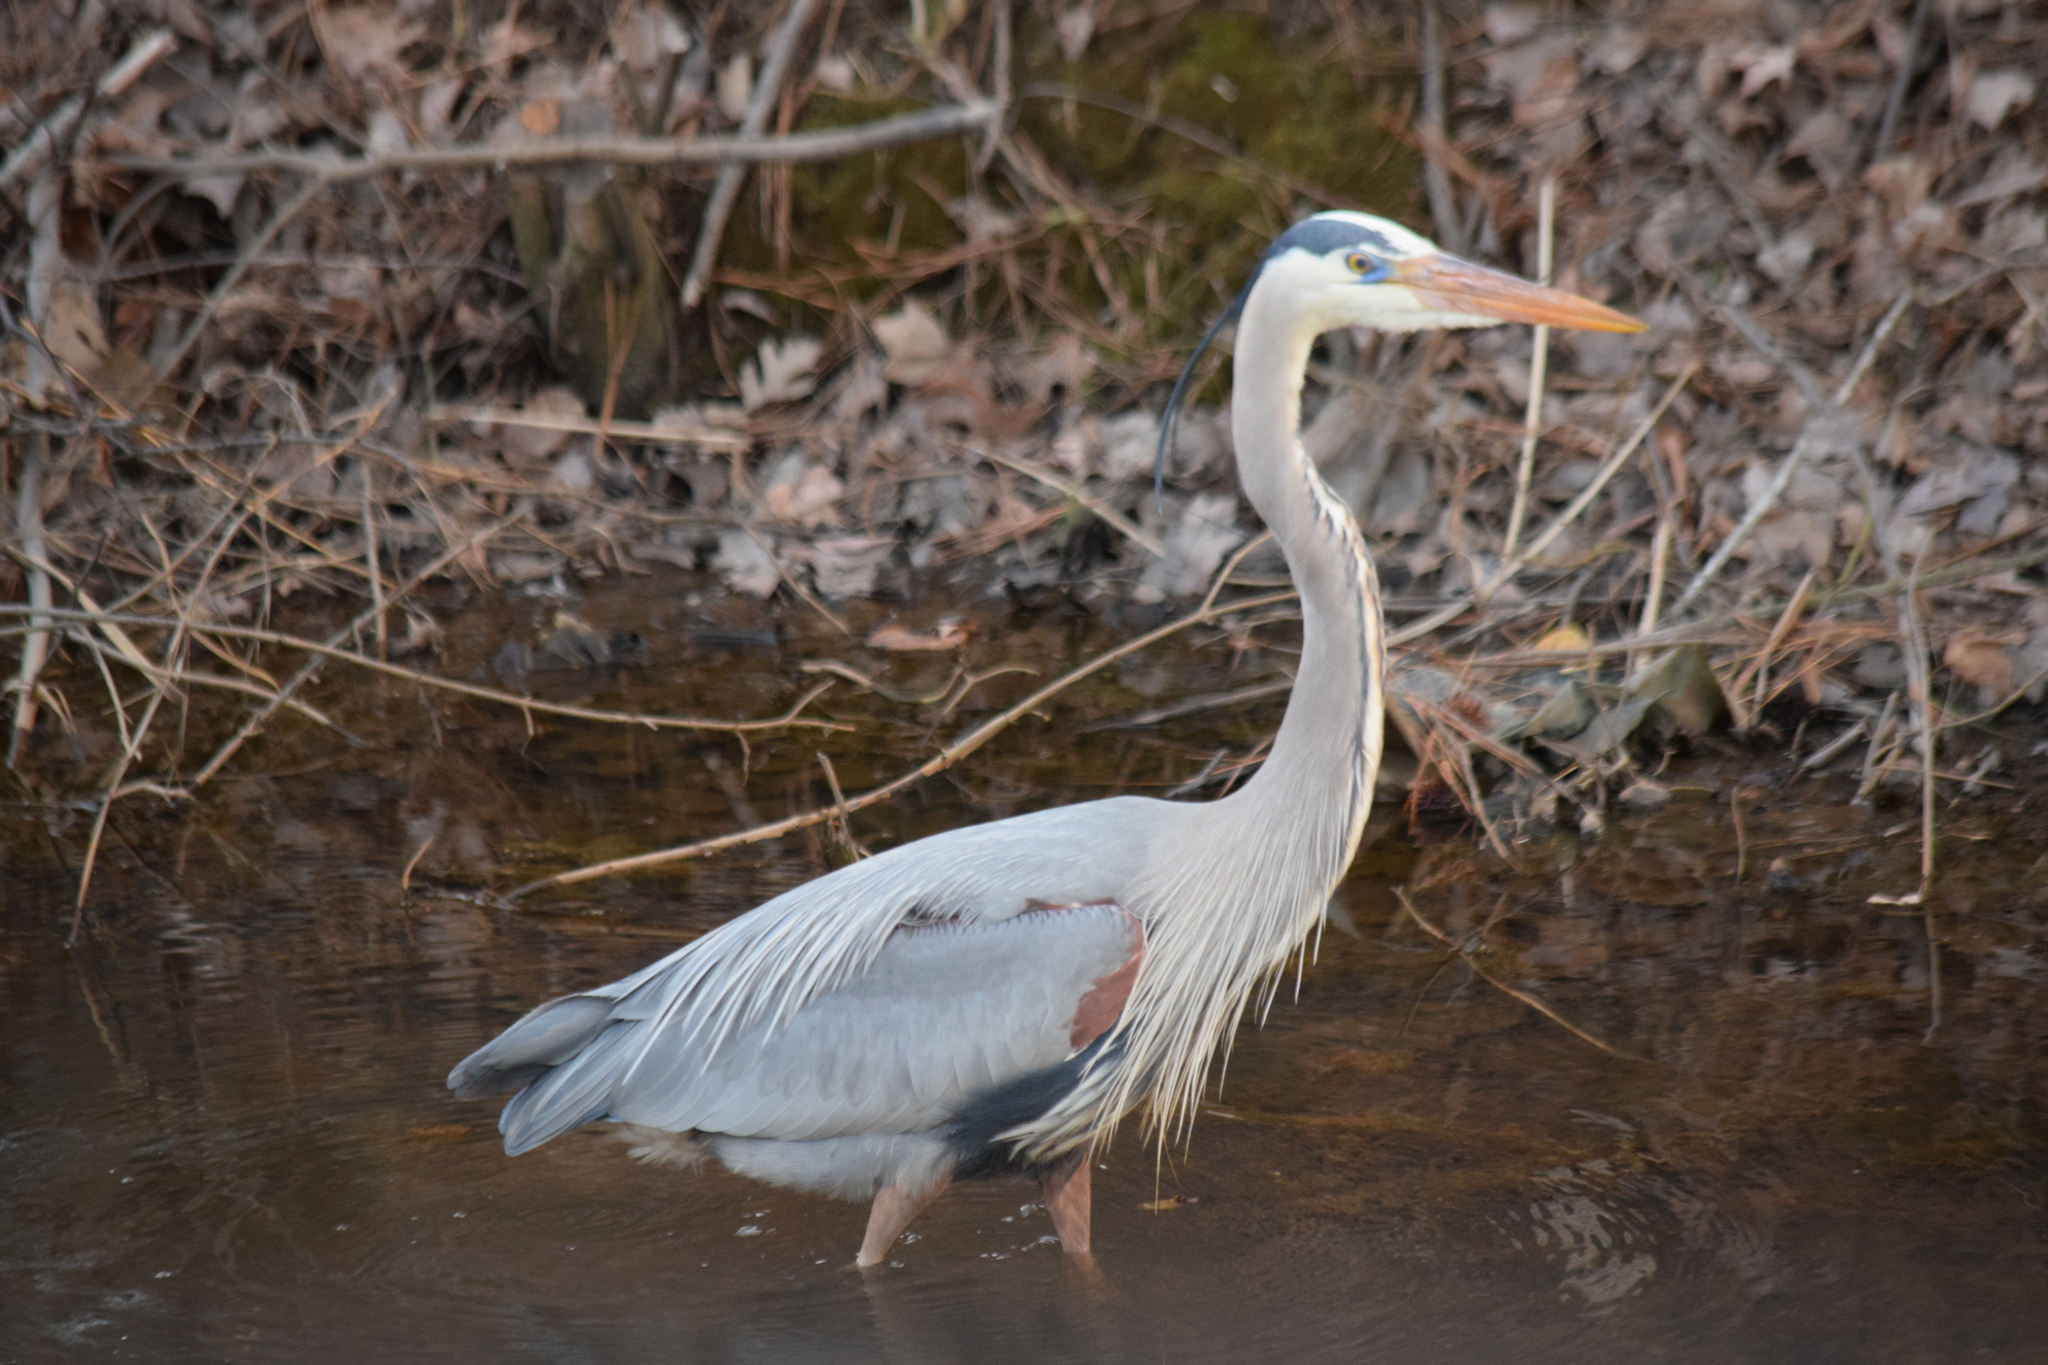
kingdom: Animalia
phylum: Chordata
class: Aves
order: Pelecaniformes
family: Ardeidae
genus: Ardea
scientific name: Ardea herodias
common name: Great blue heron
